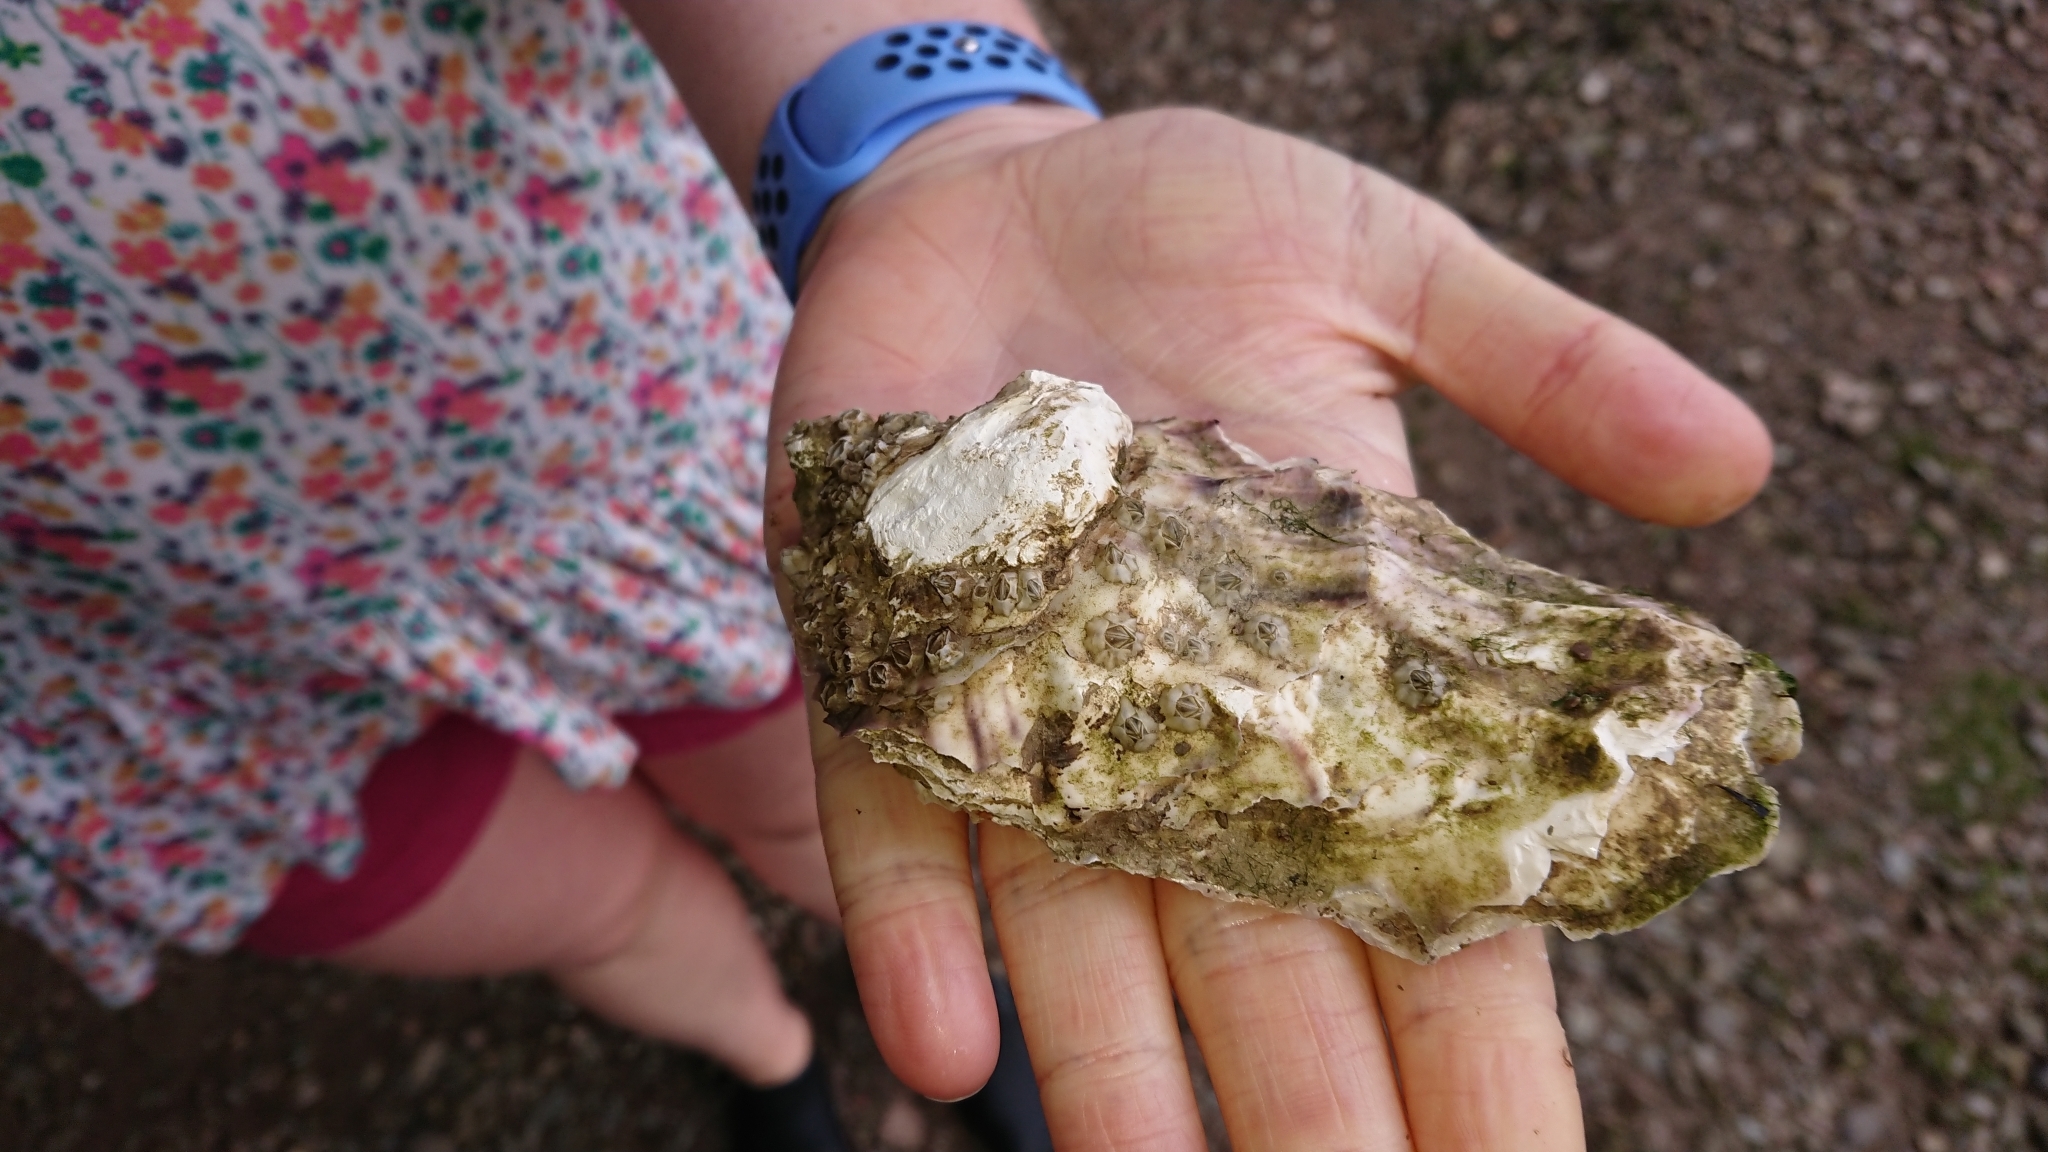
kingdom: Animalia
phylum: Mollusca
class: Bivalvia
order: Ostreida
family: Ostreidae
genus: Magallana
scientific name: Magallana gigas
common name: Pacific oyster
